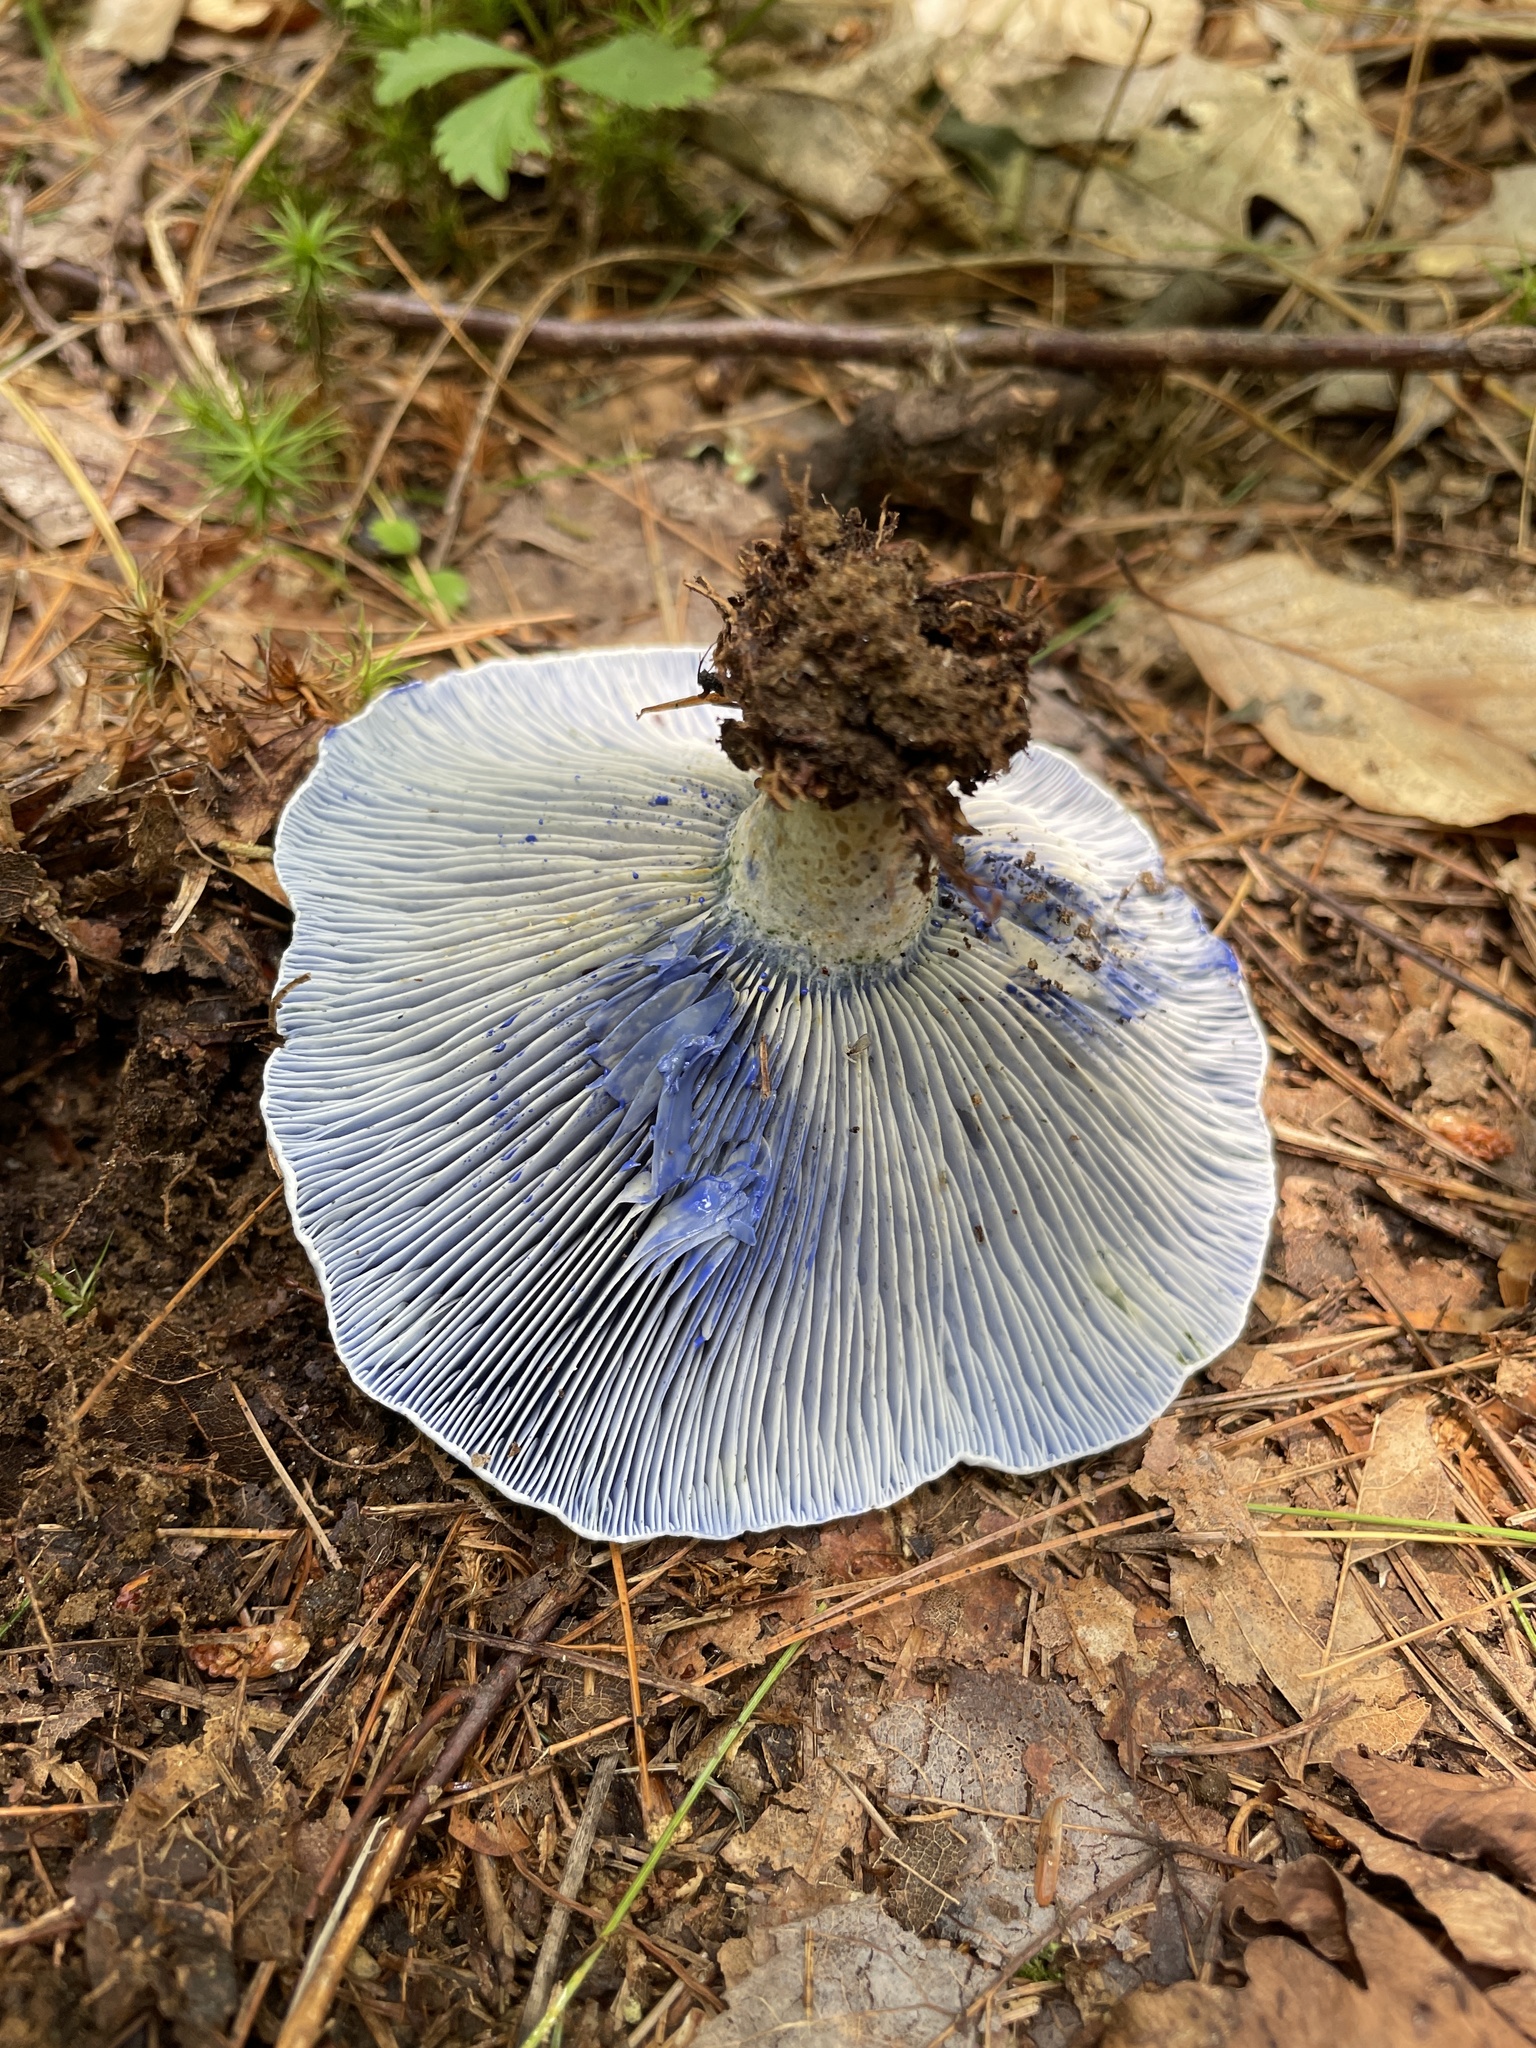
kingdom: Fungi
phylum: Basidiomycota
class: Agaricomycetes
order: Russulales
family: Russulaceae
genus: Lactarius
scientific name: Lactarius indigo
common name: Indigo milk cap
